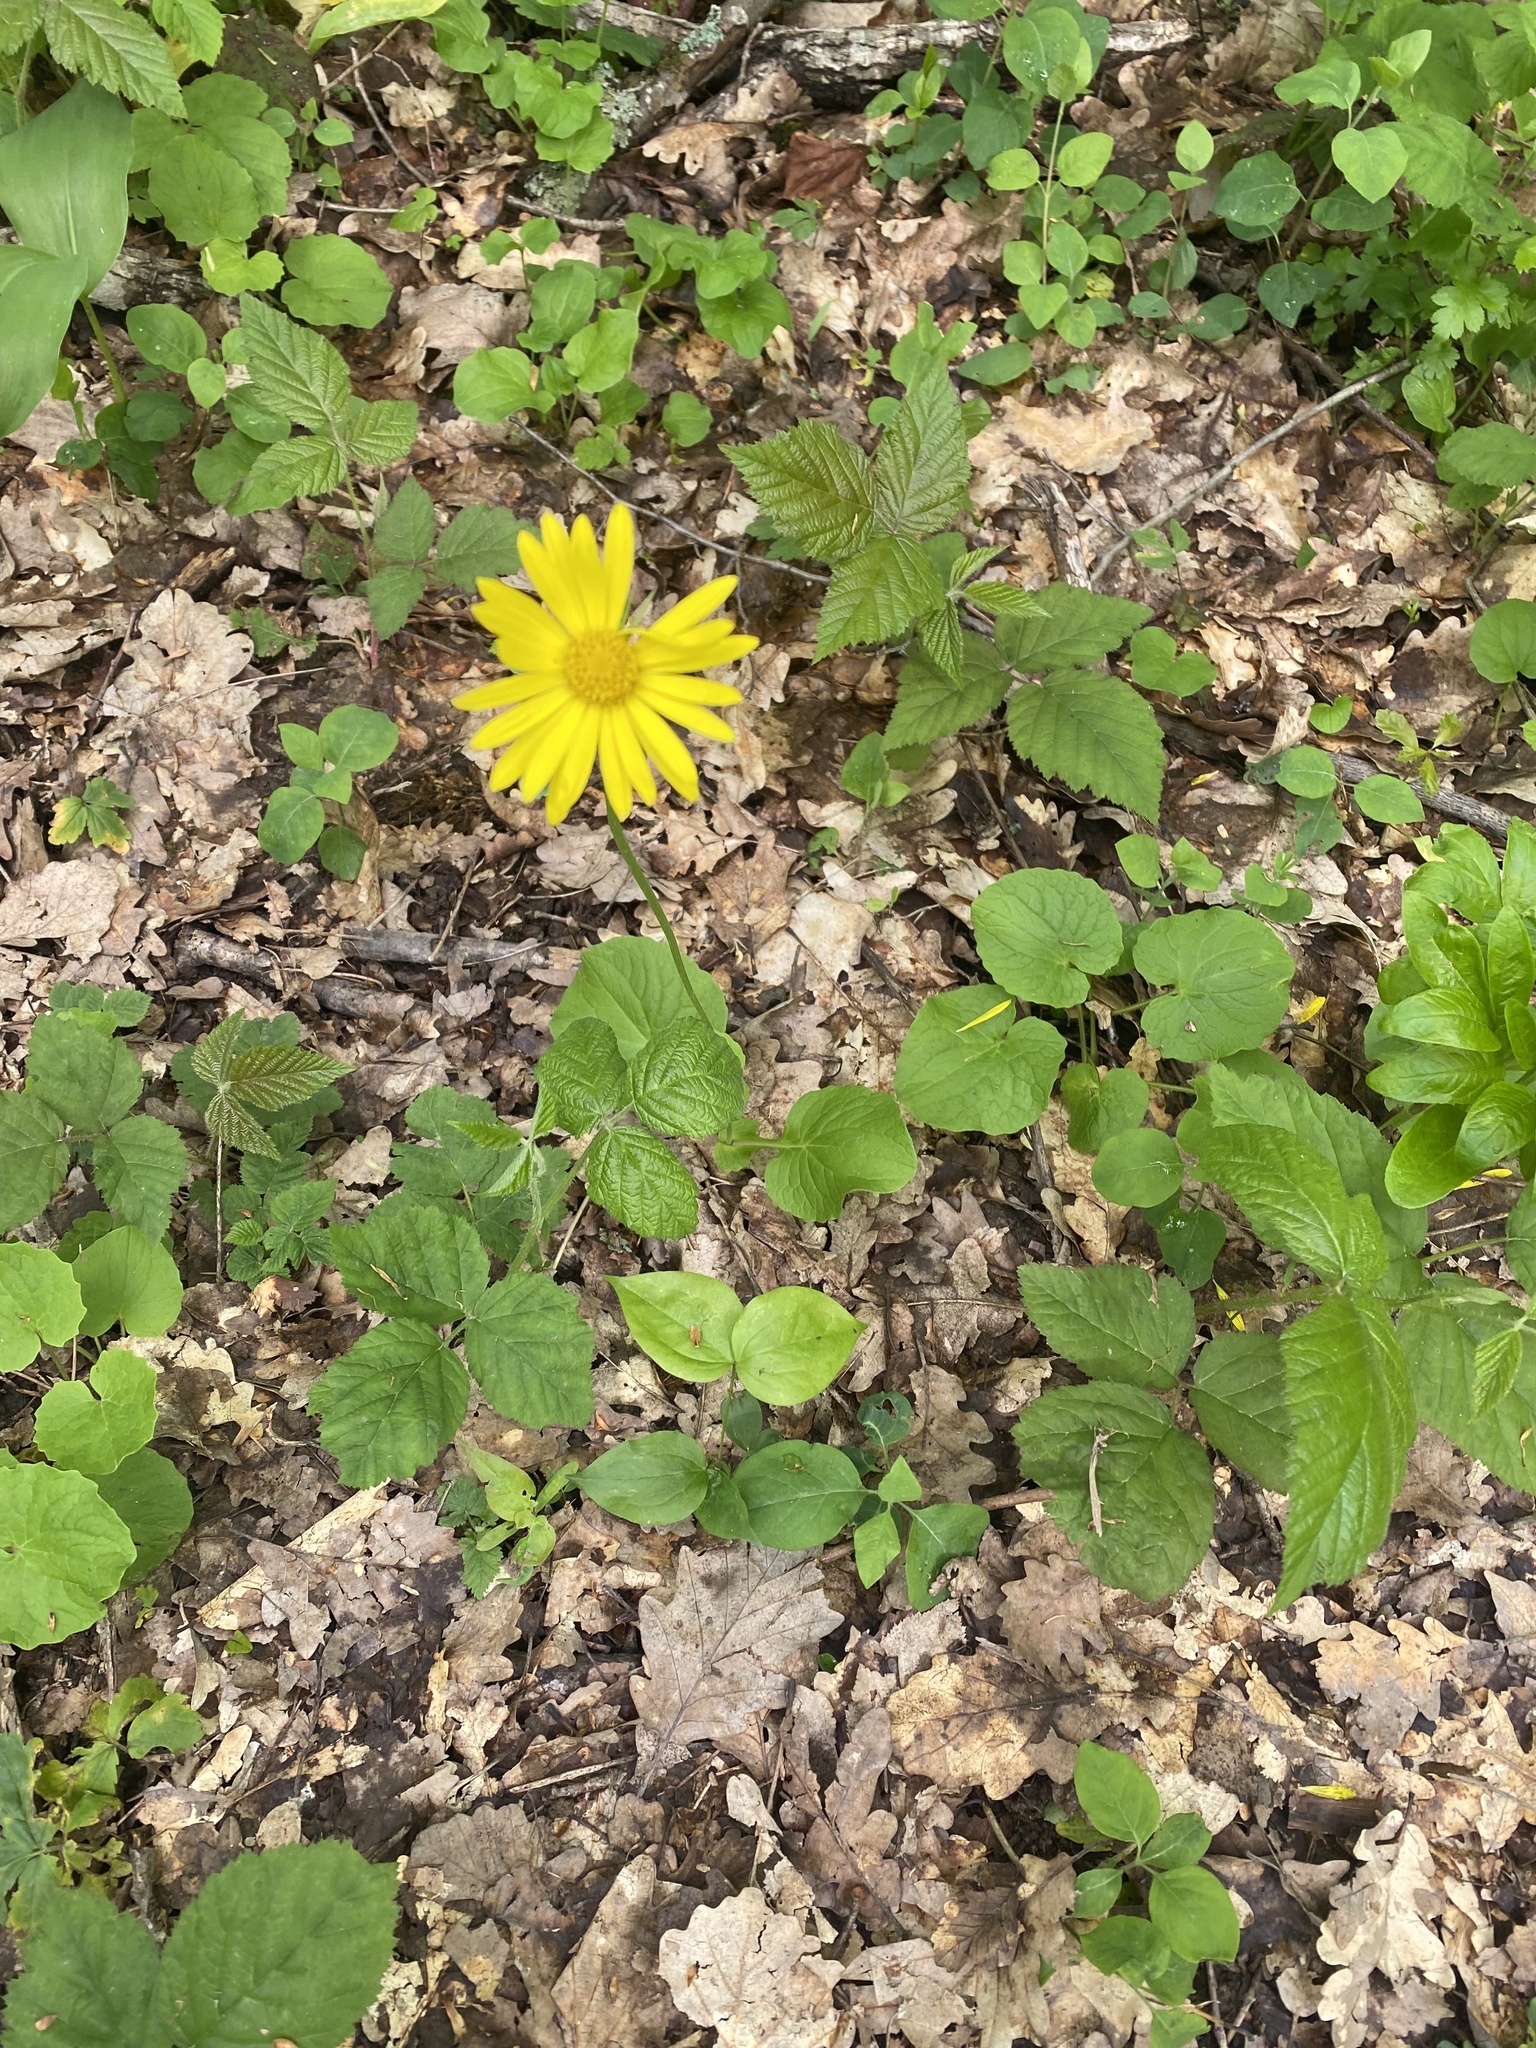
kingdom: Plantae
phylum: Tracheophyta
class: Magnoliopsida
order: Asterales
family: Asteraceae
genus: Doronicum
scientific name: Doronicum
